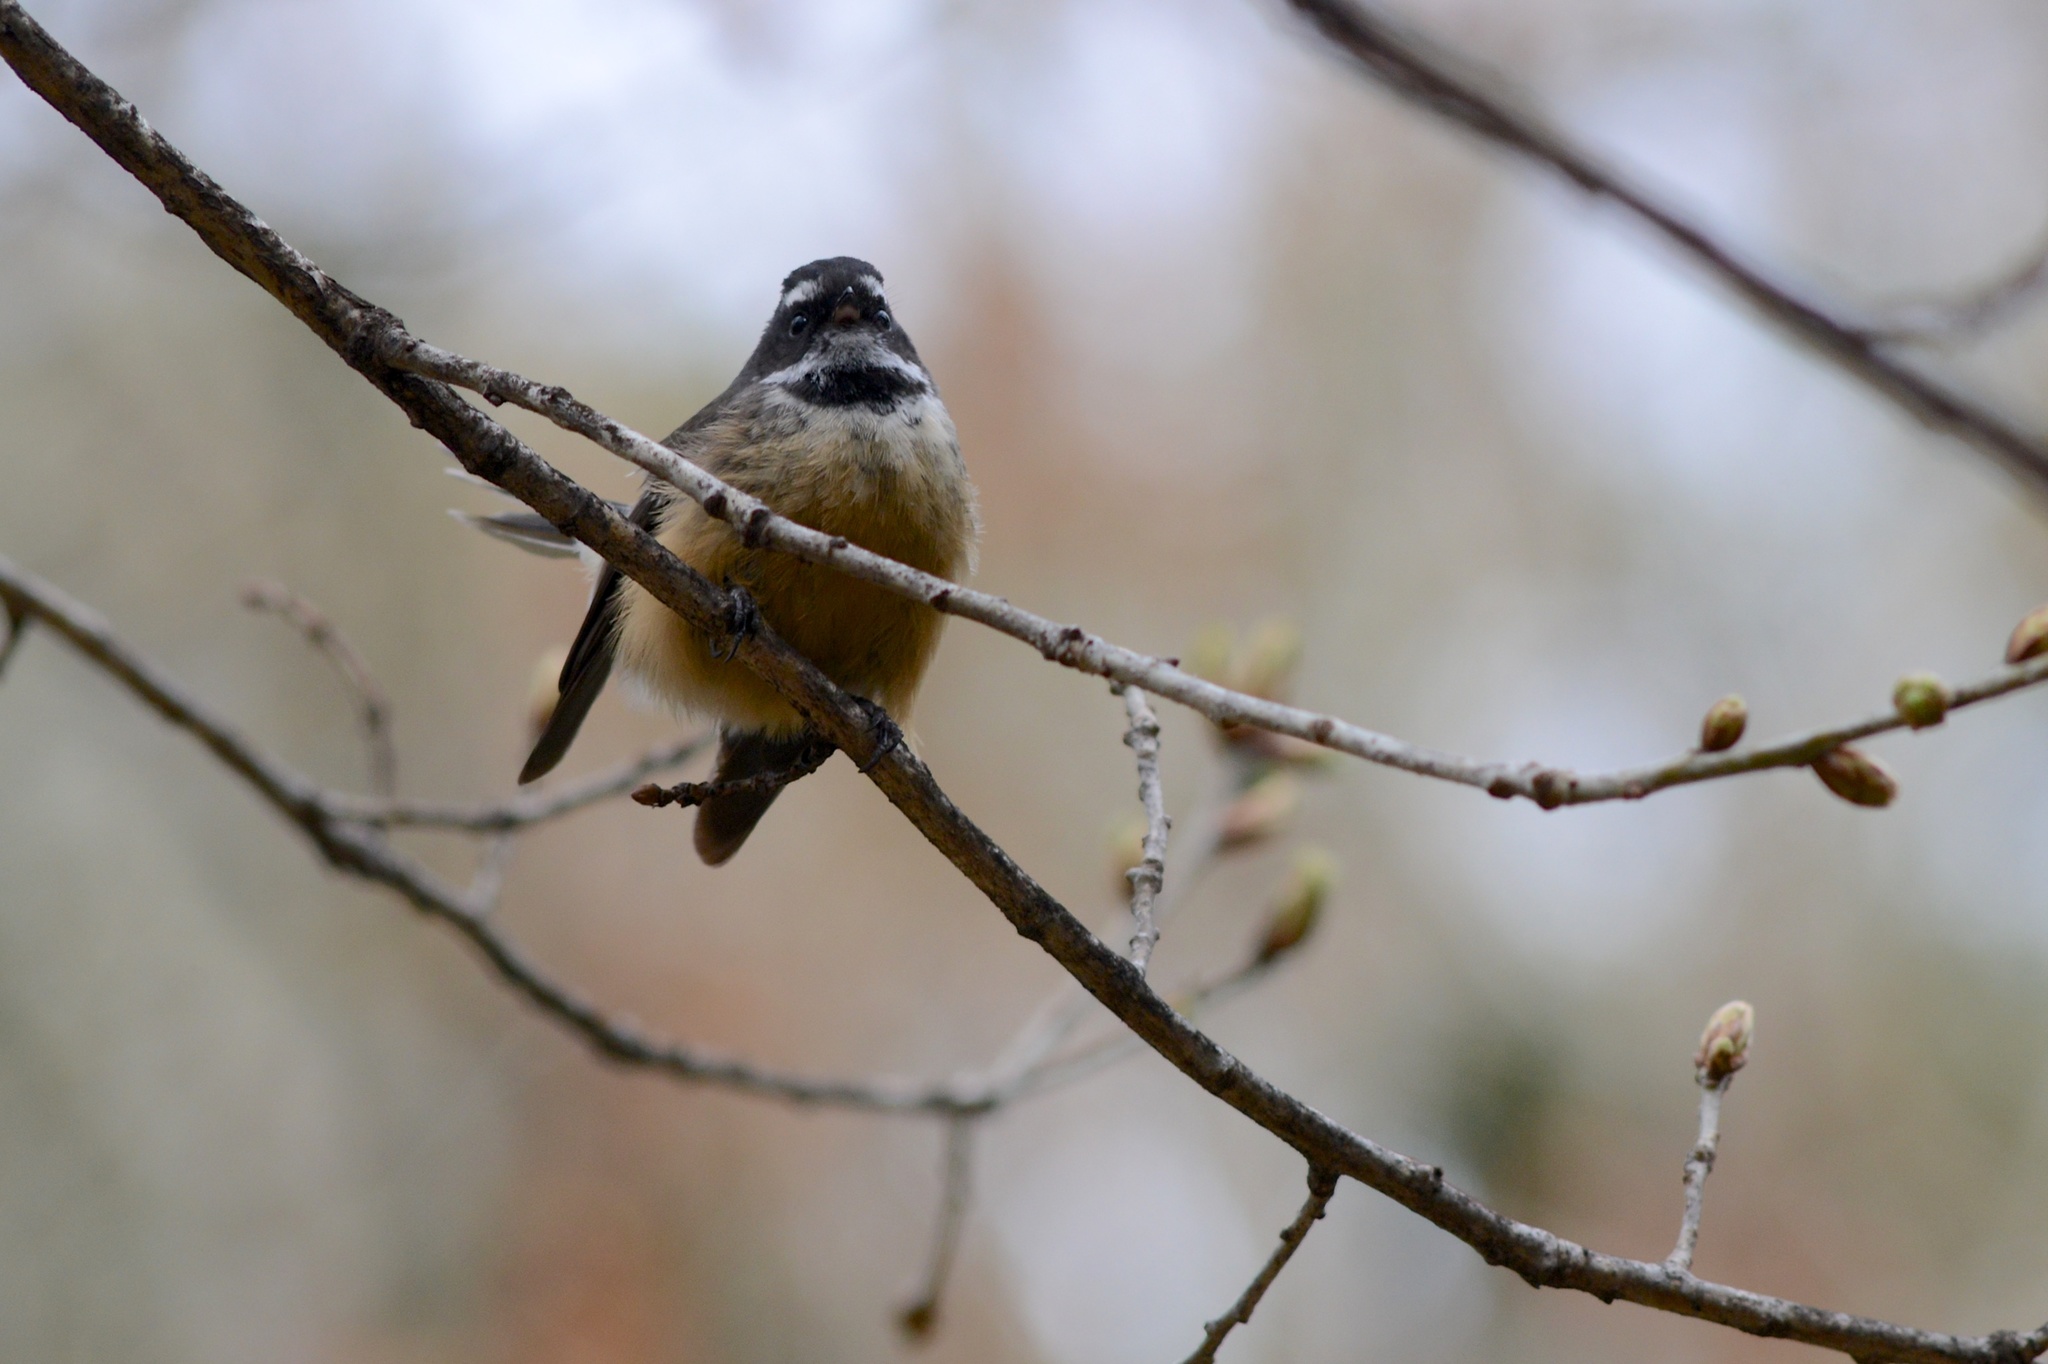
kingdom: Animalia
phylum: Chordata
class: Aves
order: Passeriformes
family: Rhipiduridae
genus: Rhipidura
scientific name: Rhipidura fuliginosa
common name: New zealand fantail
